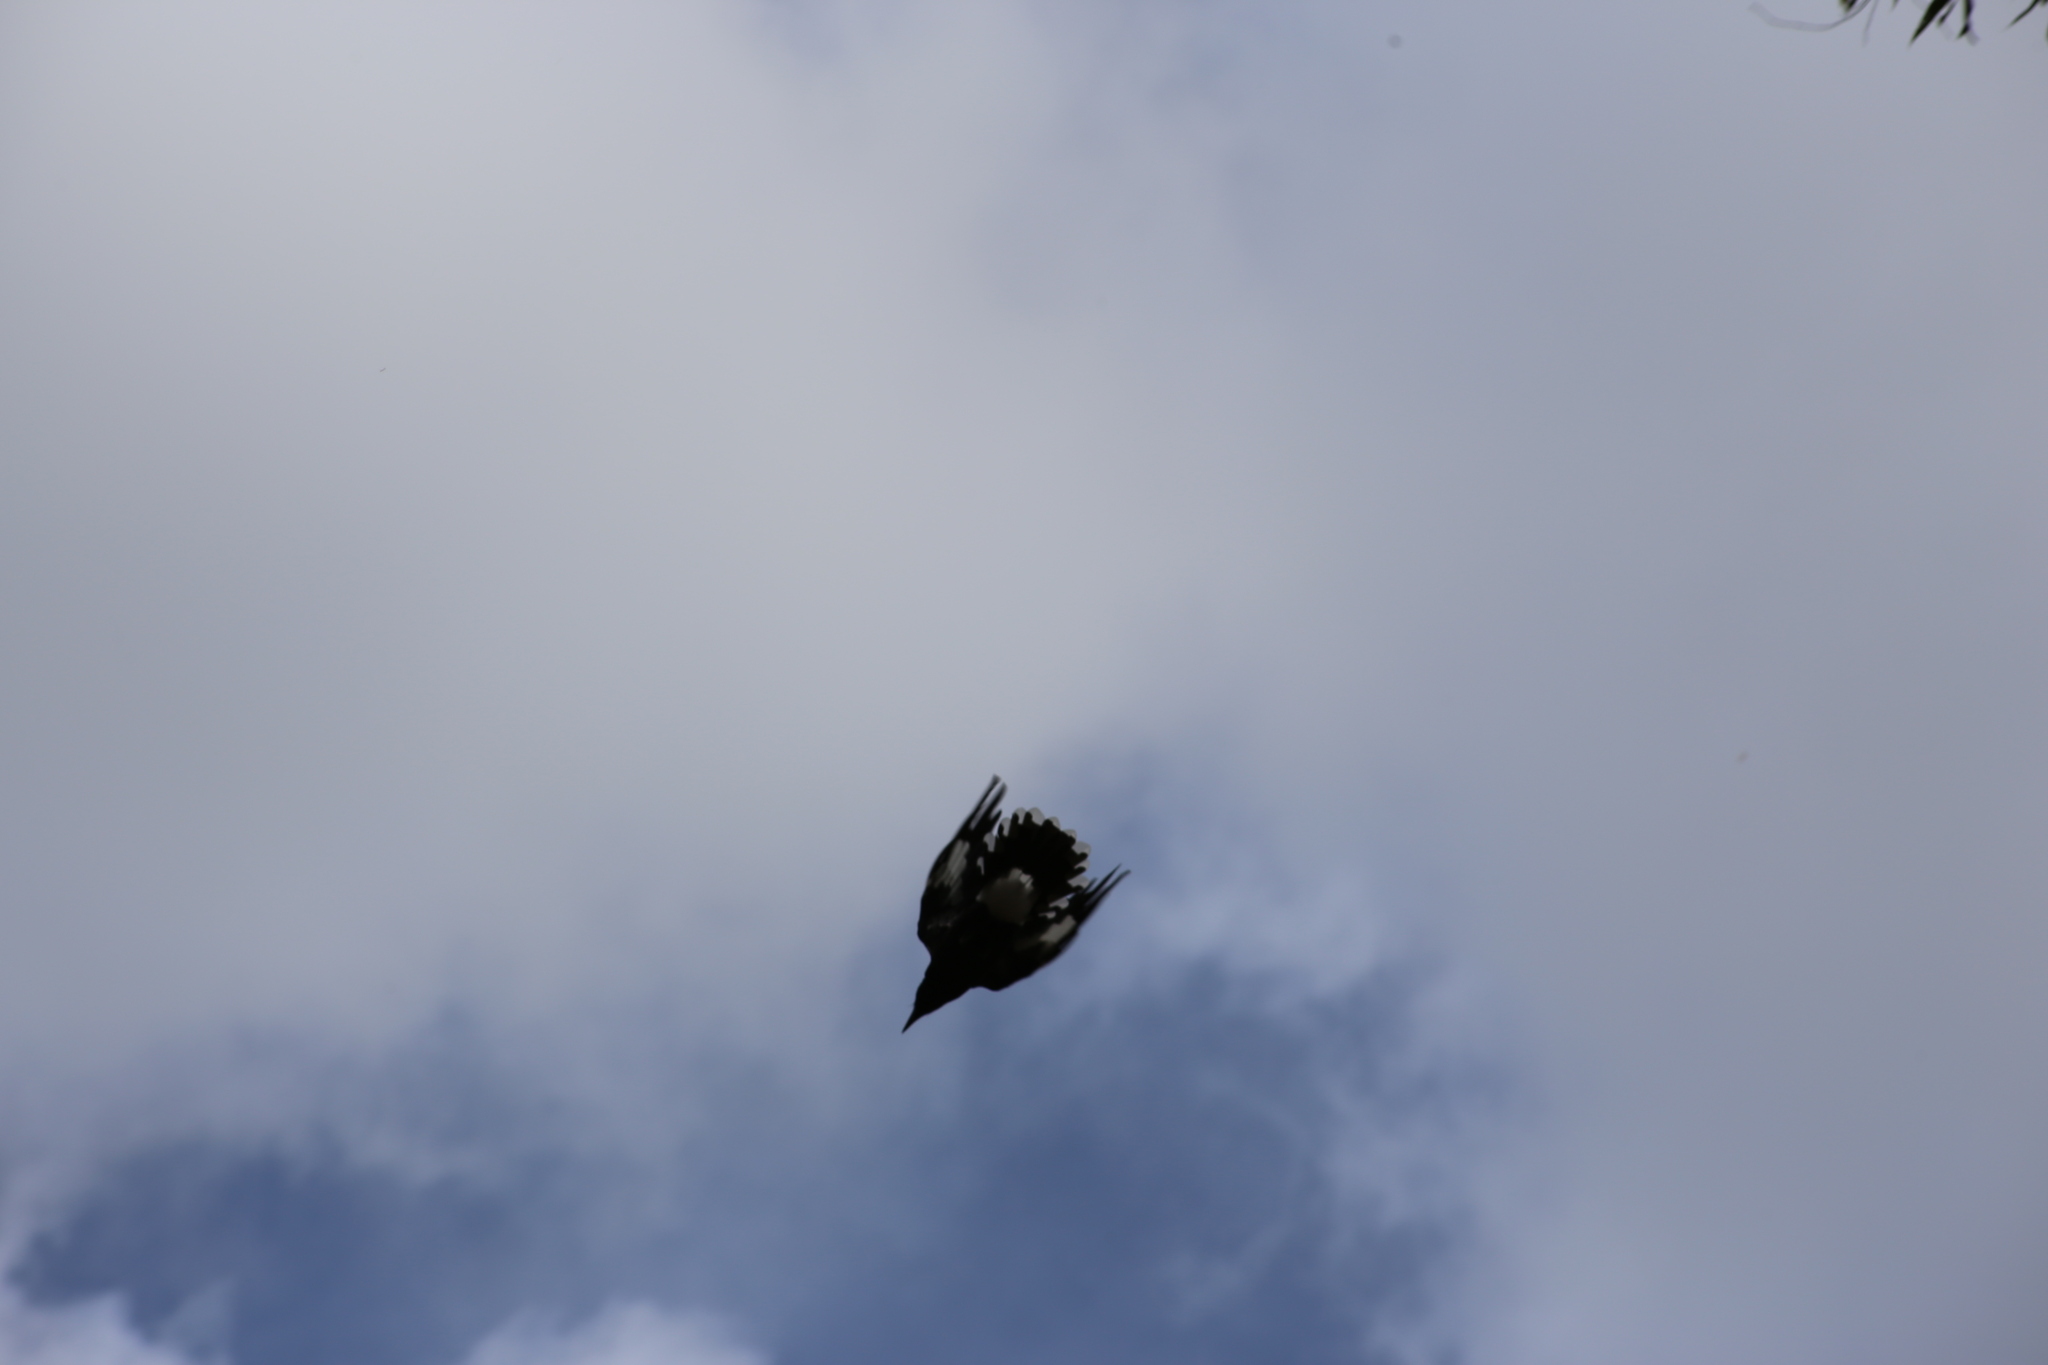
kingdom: Animalia
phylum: Chordata
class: Aves
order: Passeriformes
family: Cracticidae
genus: Strepera
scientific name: Strepera graculina
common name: Pied currawong
